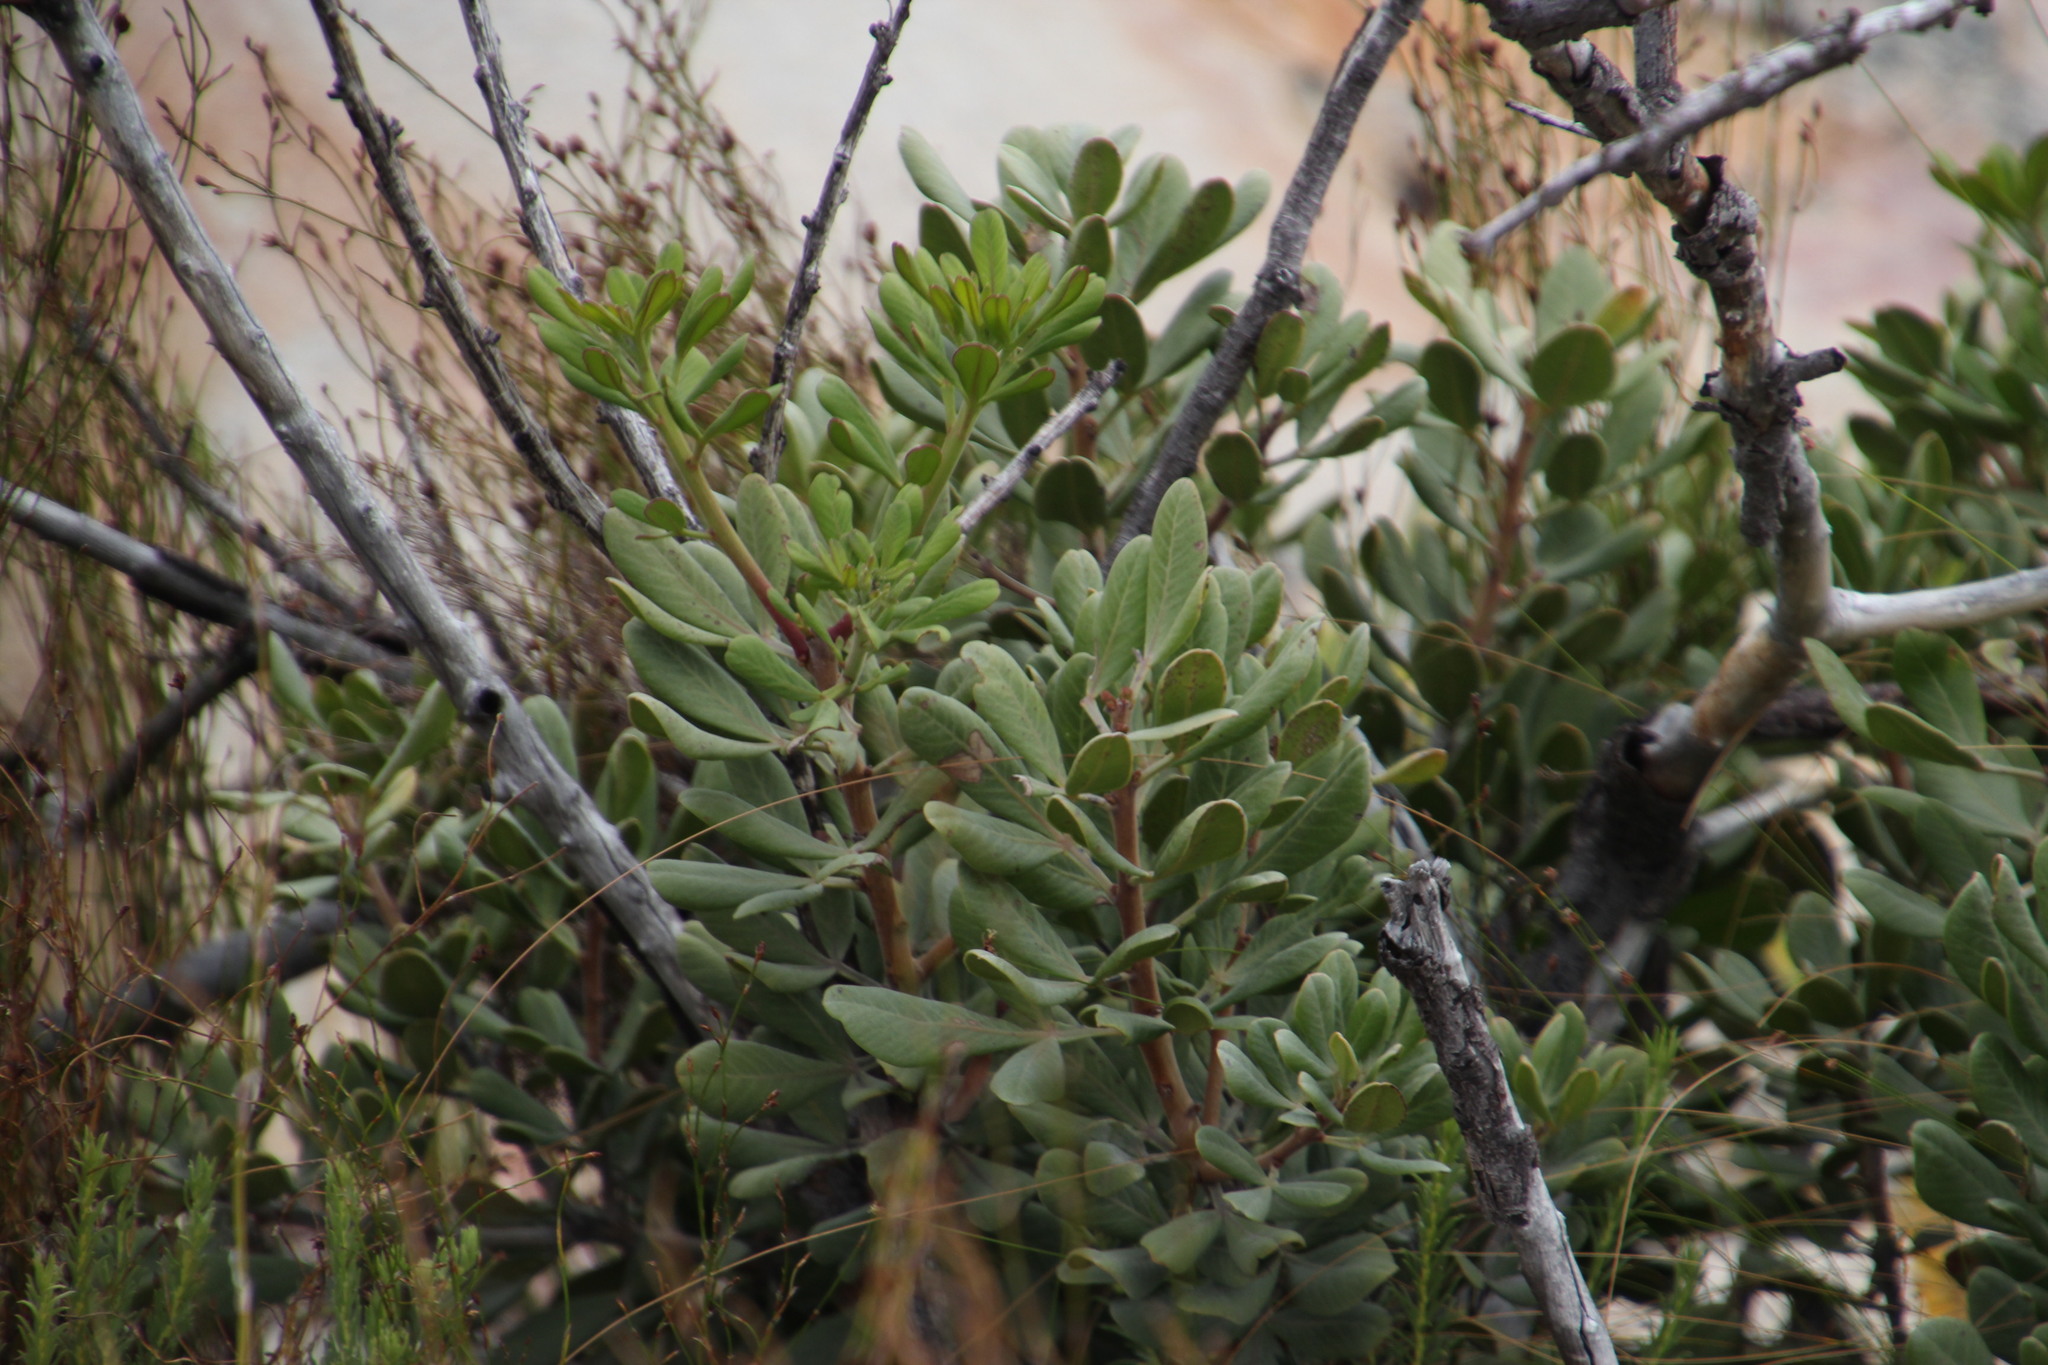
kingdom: Plantae
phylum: Tracheophyta
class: Magnoliopsida
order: Sapindales
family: Anacardiaceae
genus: Searsia
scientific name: Searsia scytophylla
